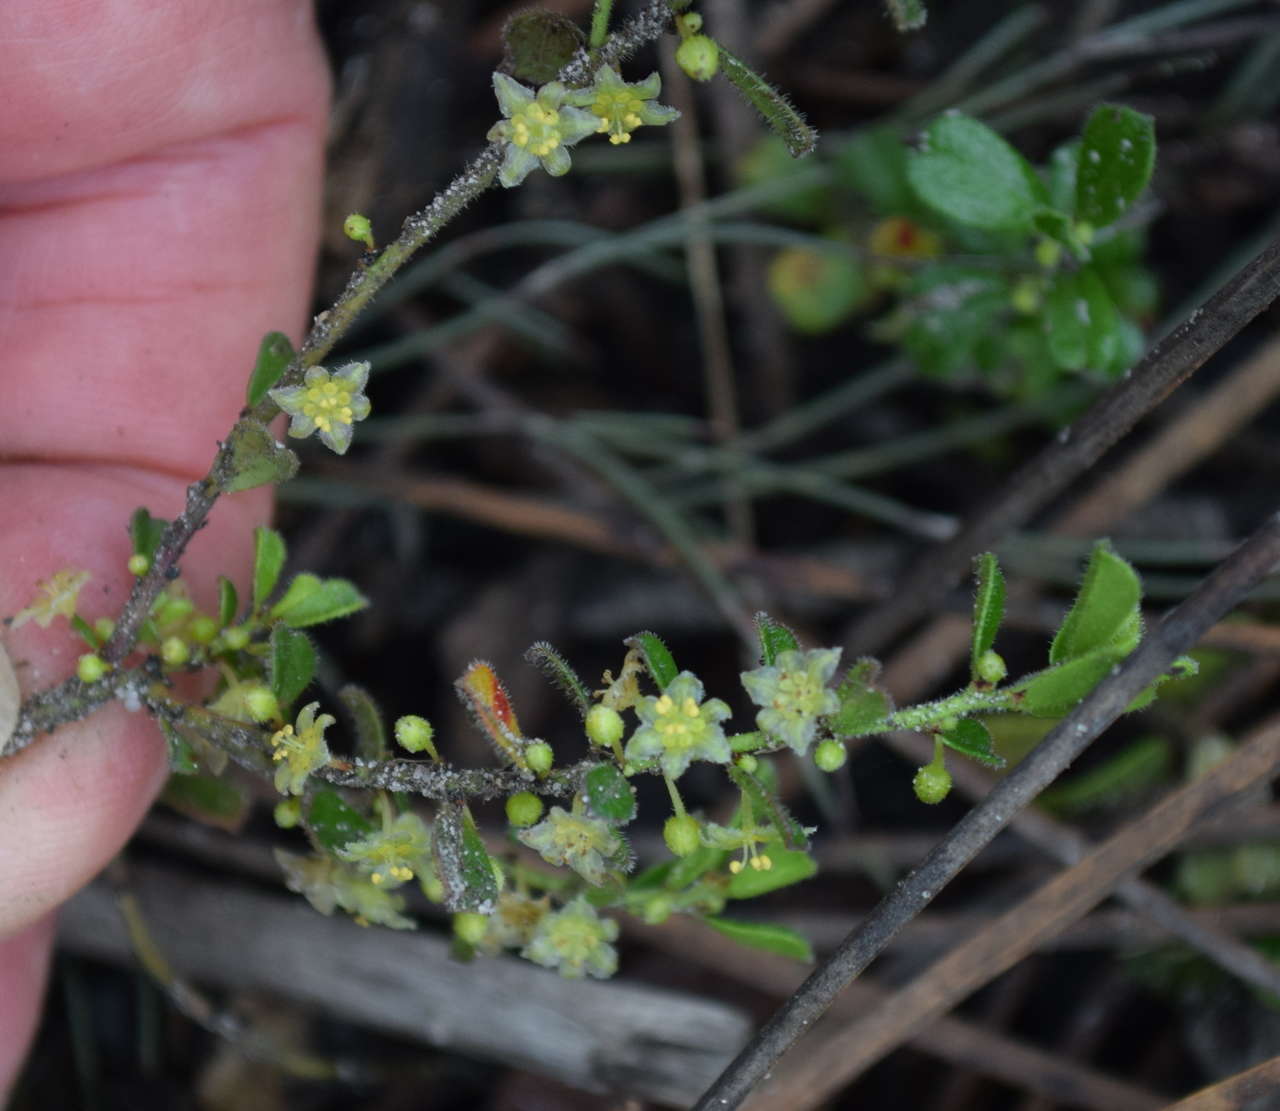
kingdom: Plantae
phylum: Tracheophyta
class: Magnoliopsida
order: Malpighiales
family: Phyllanthaceae
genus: Phyllanthus
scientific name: Phyllanthus hirtellus
